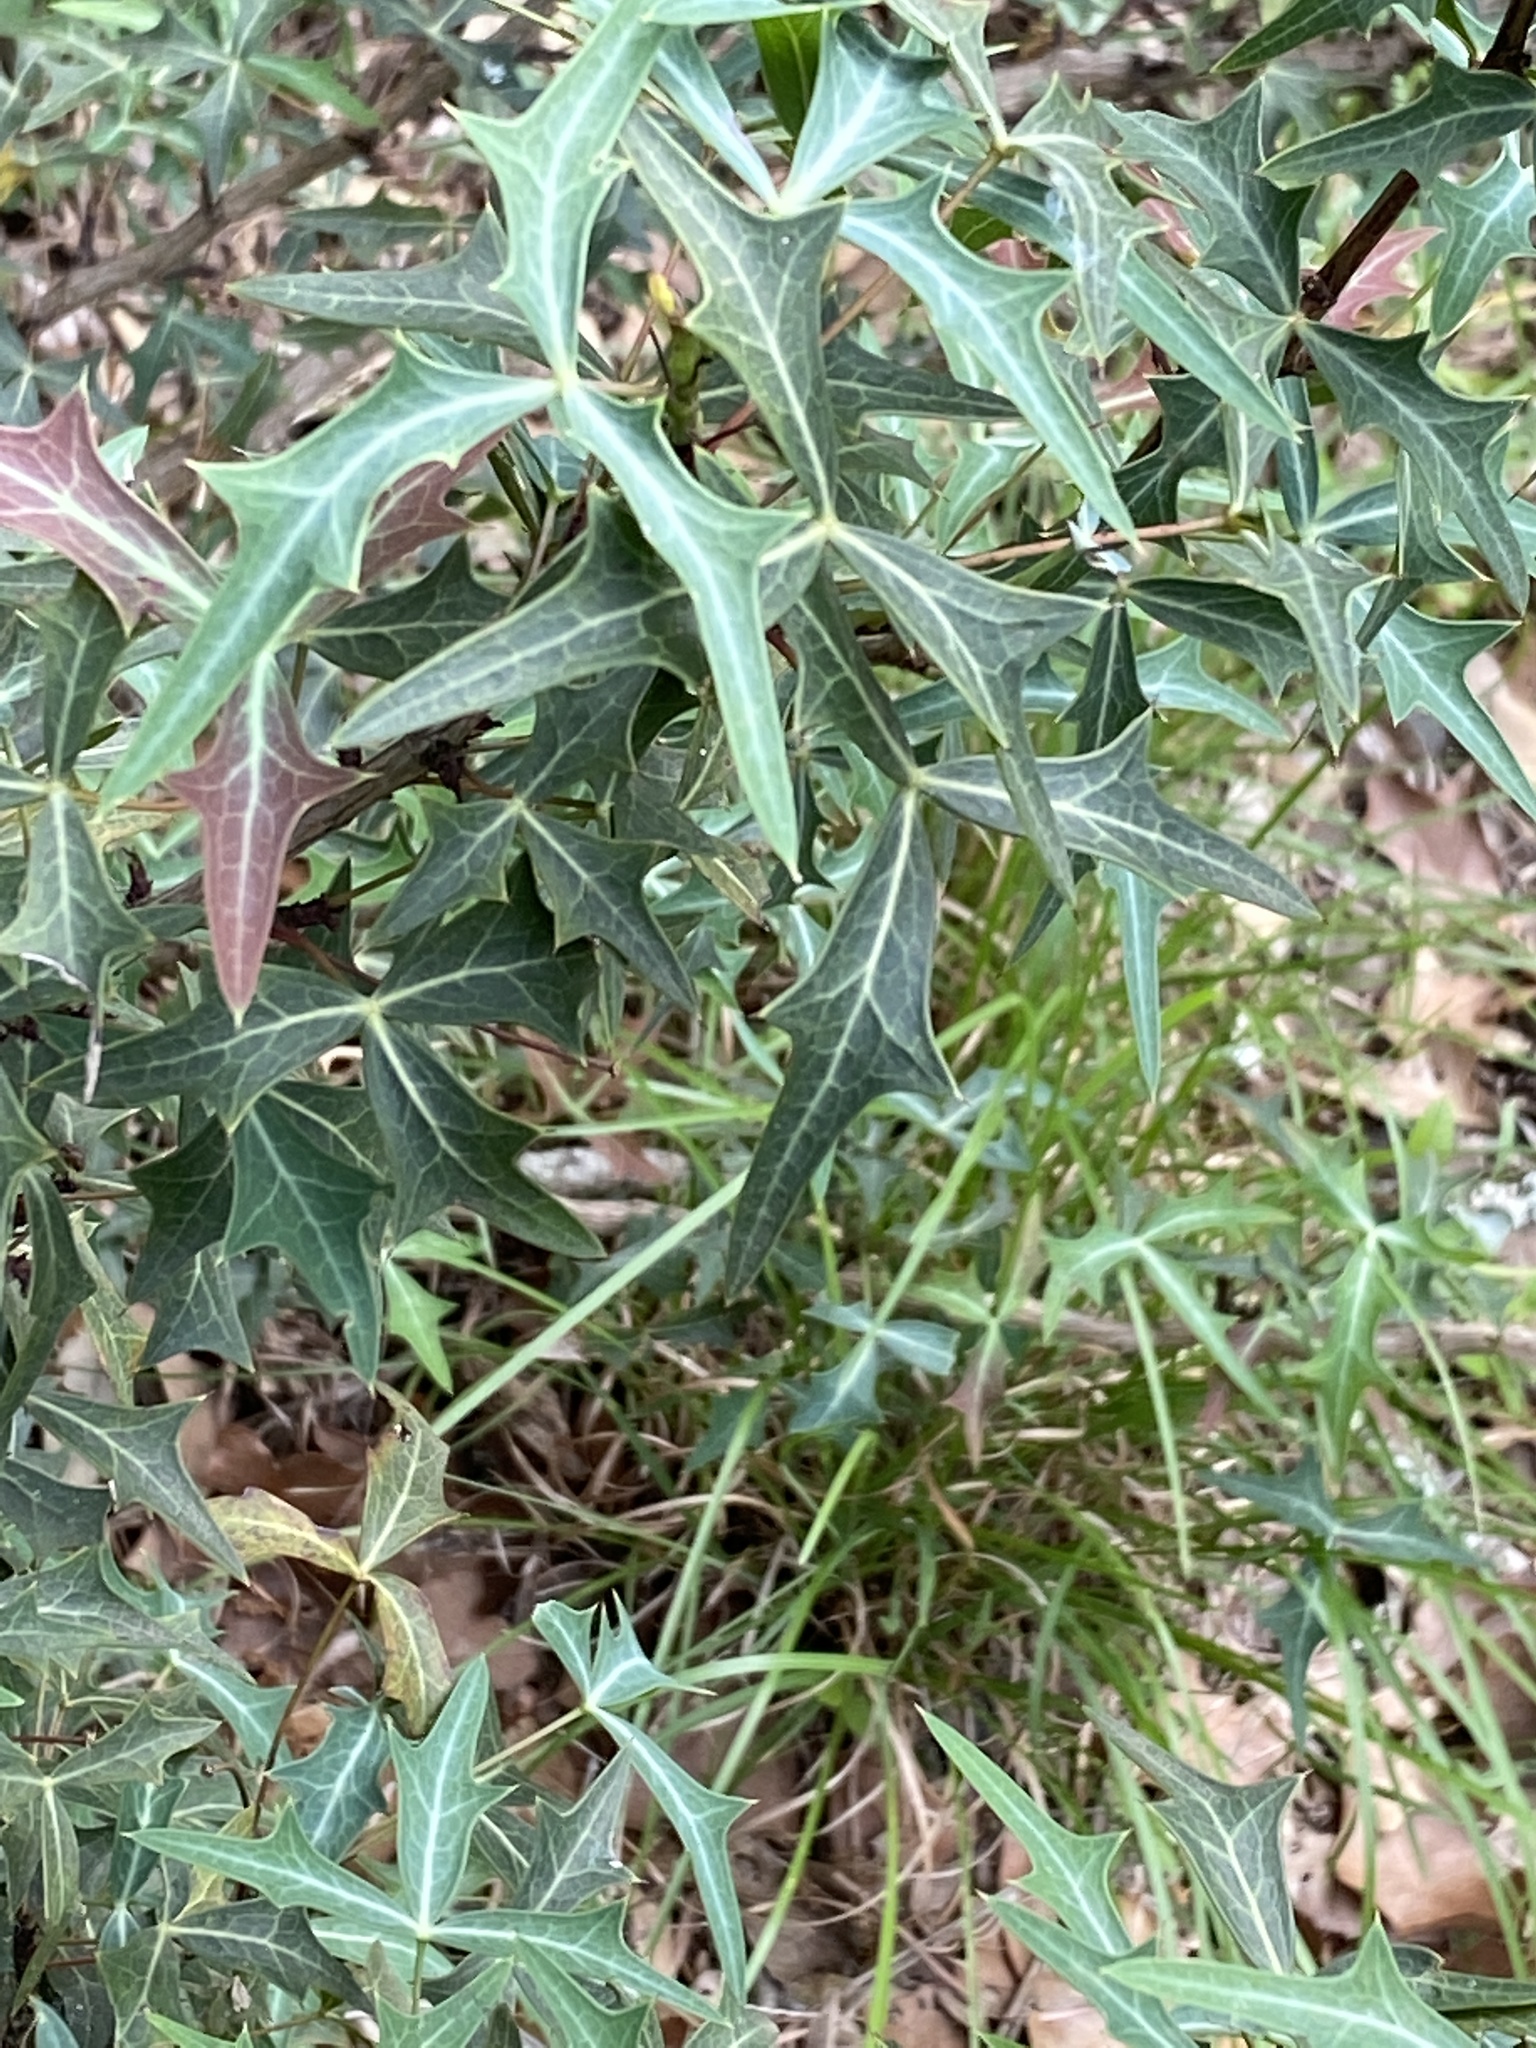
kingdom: Plantae
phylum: Tracheophyta
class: Magnoliopsida
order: Ranunculales
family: Berberidaceae
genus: Alloberberis
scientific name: Alloberberis trifoliolata
